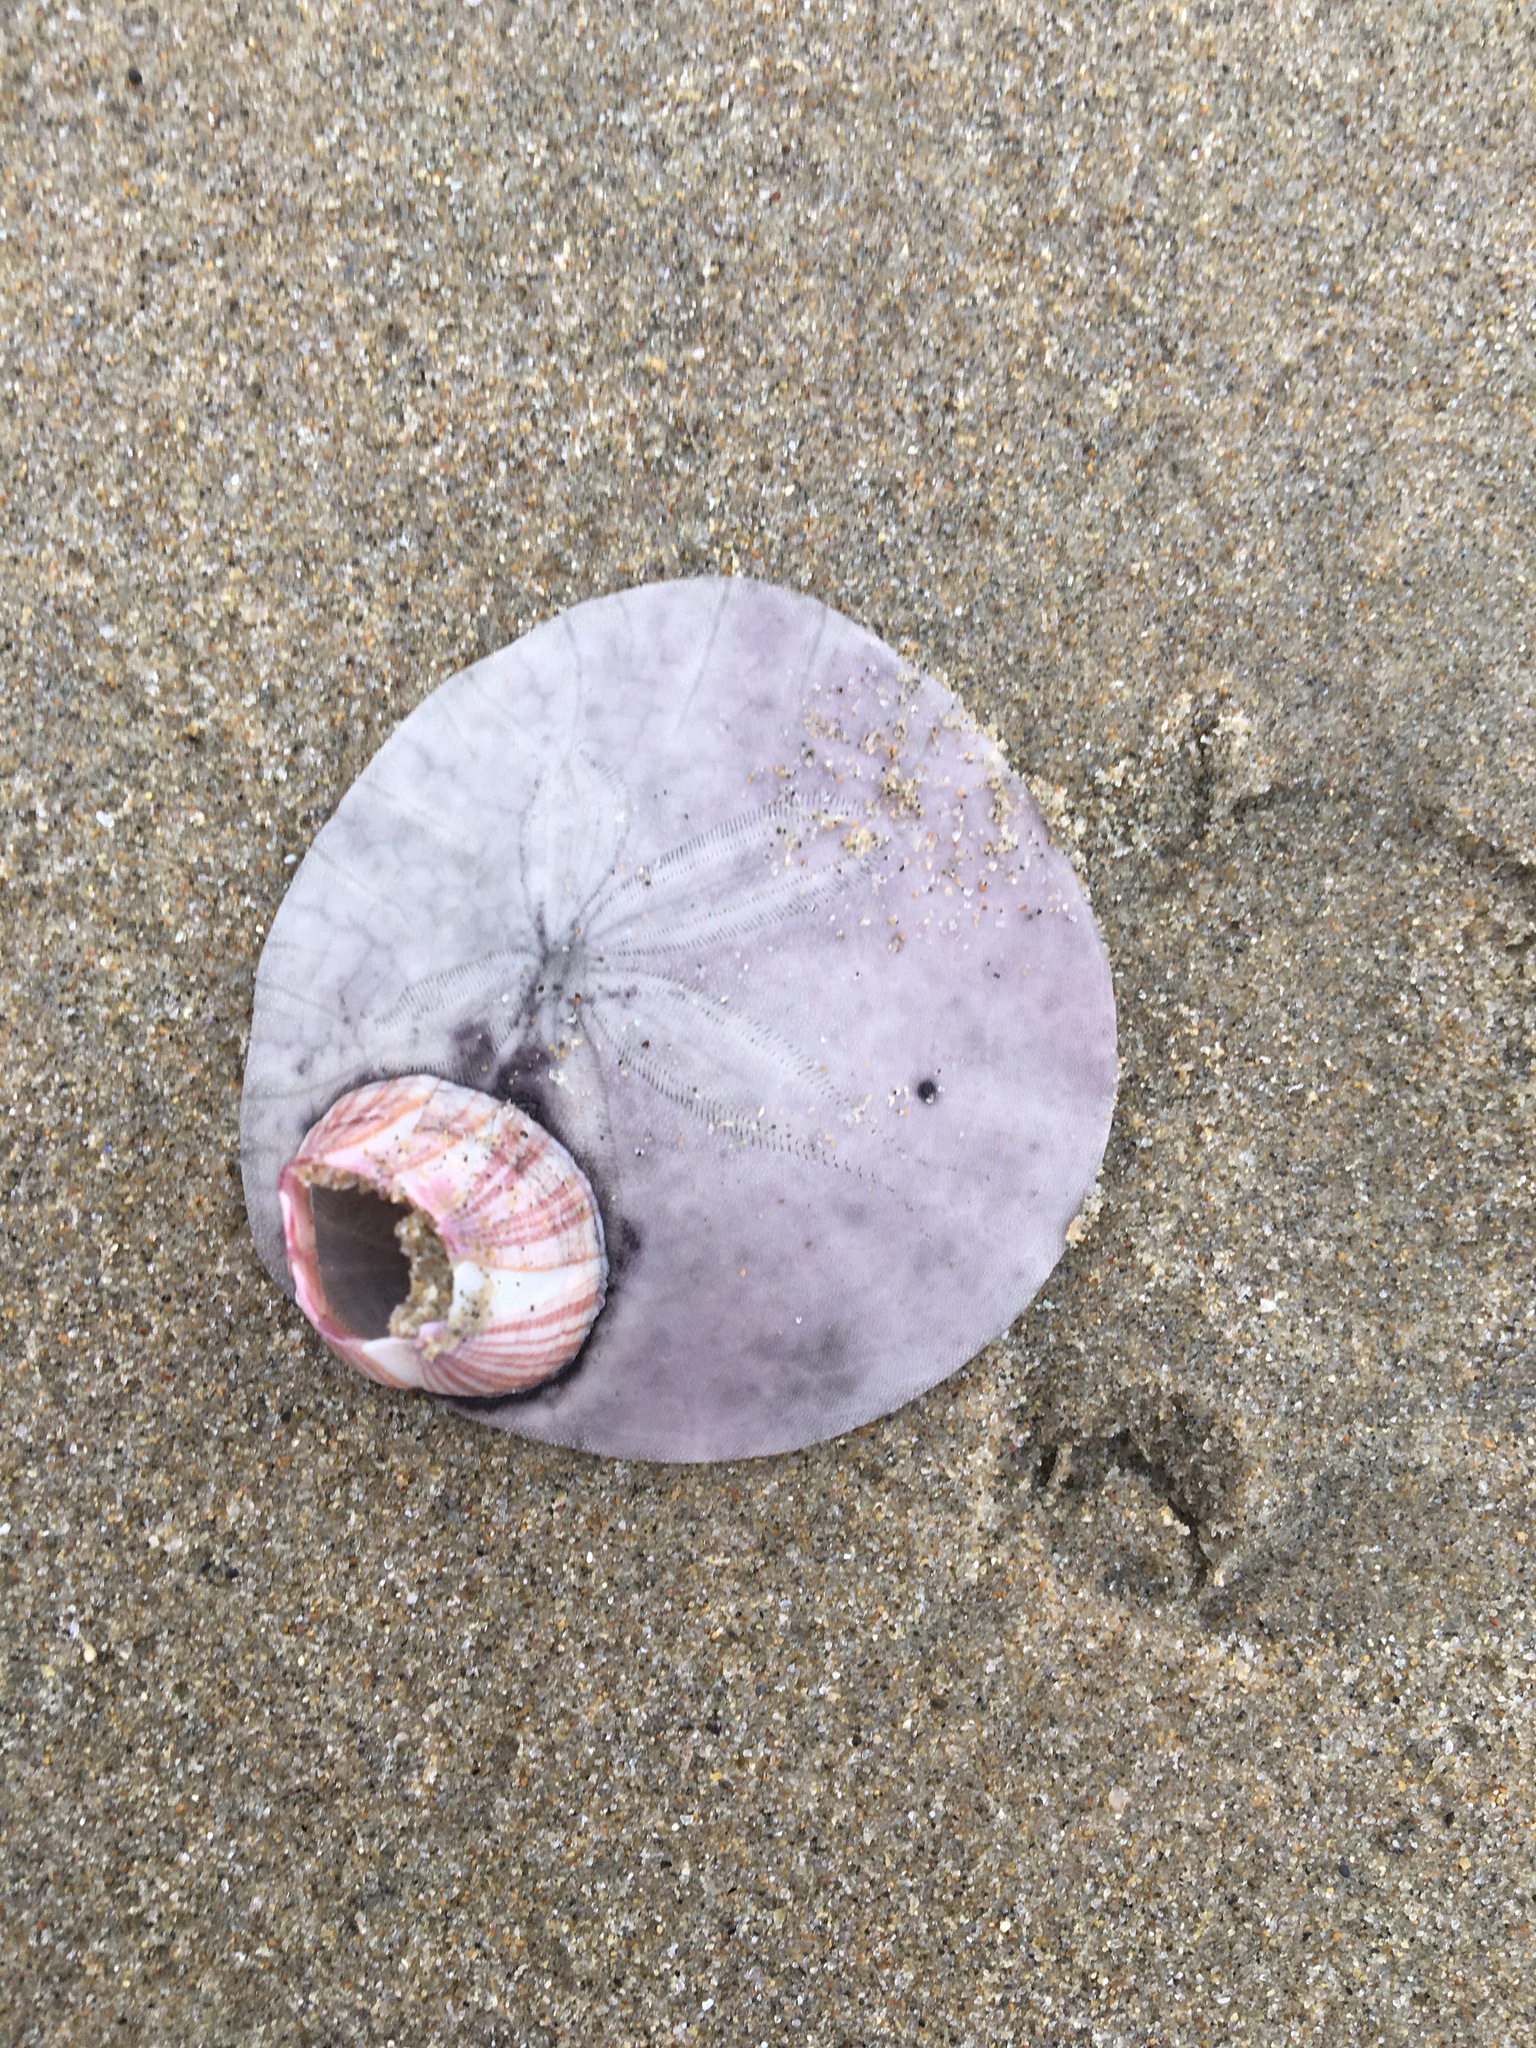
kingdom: Animalia
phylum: Echinodermata
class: Echinoidea
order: Echinolampadacea
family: Dendrasteridae
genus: Dendraster
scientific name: Dendraster excentricus
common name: Eccentric sand dollar sea urchin
